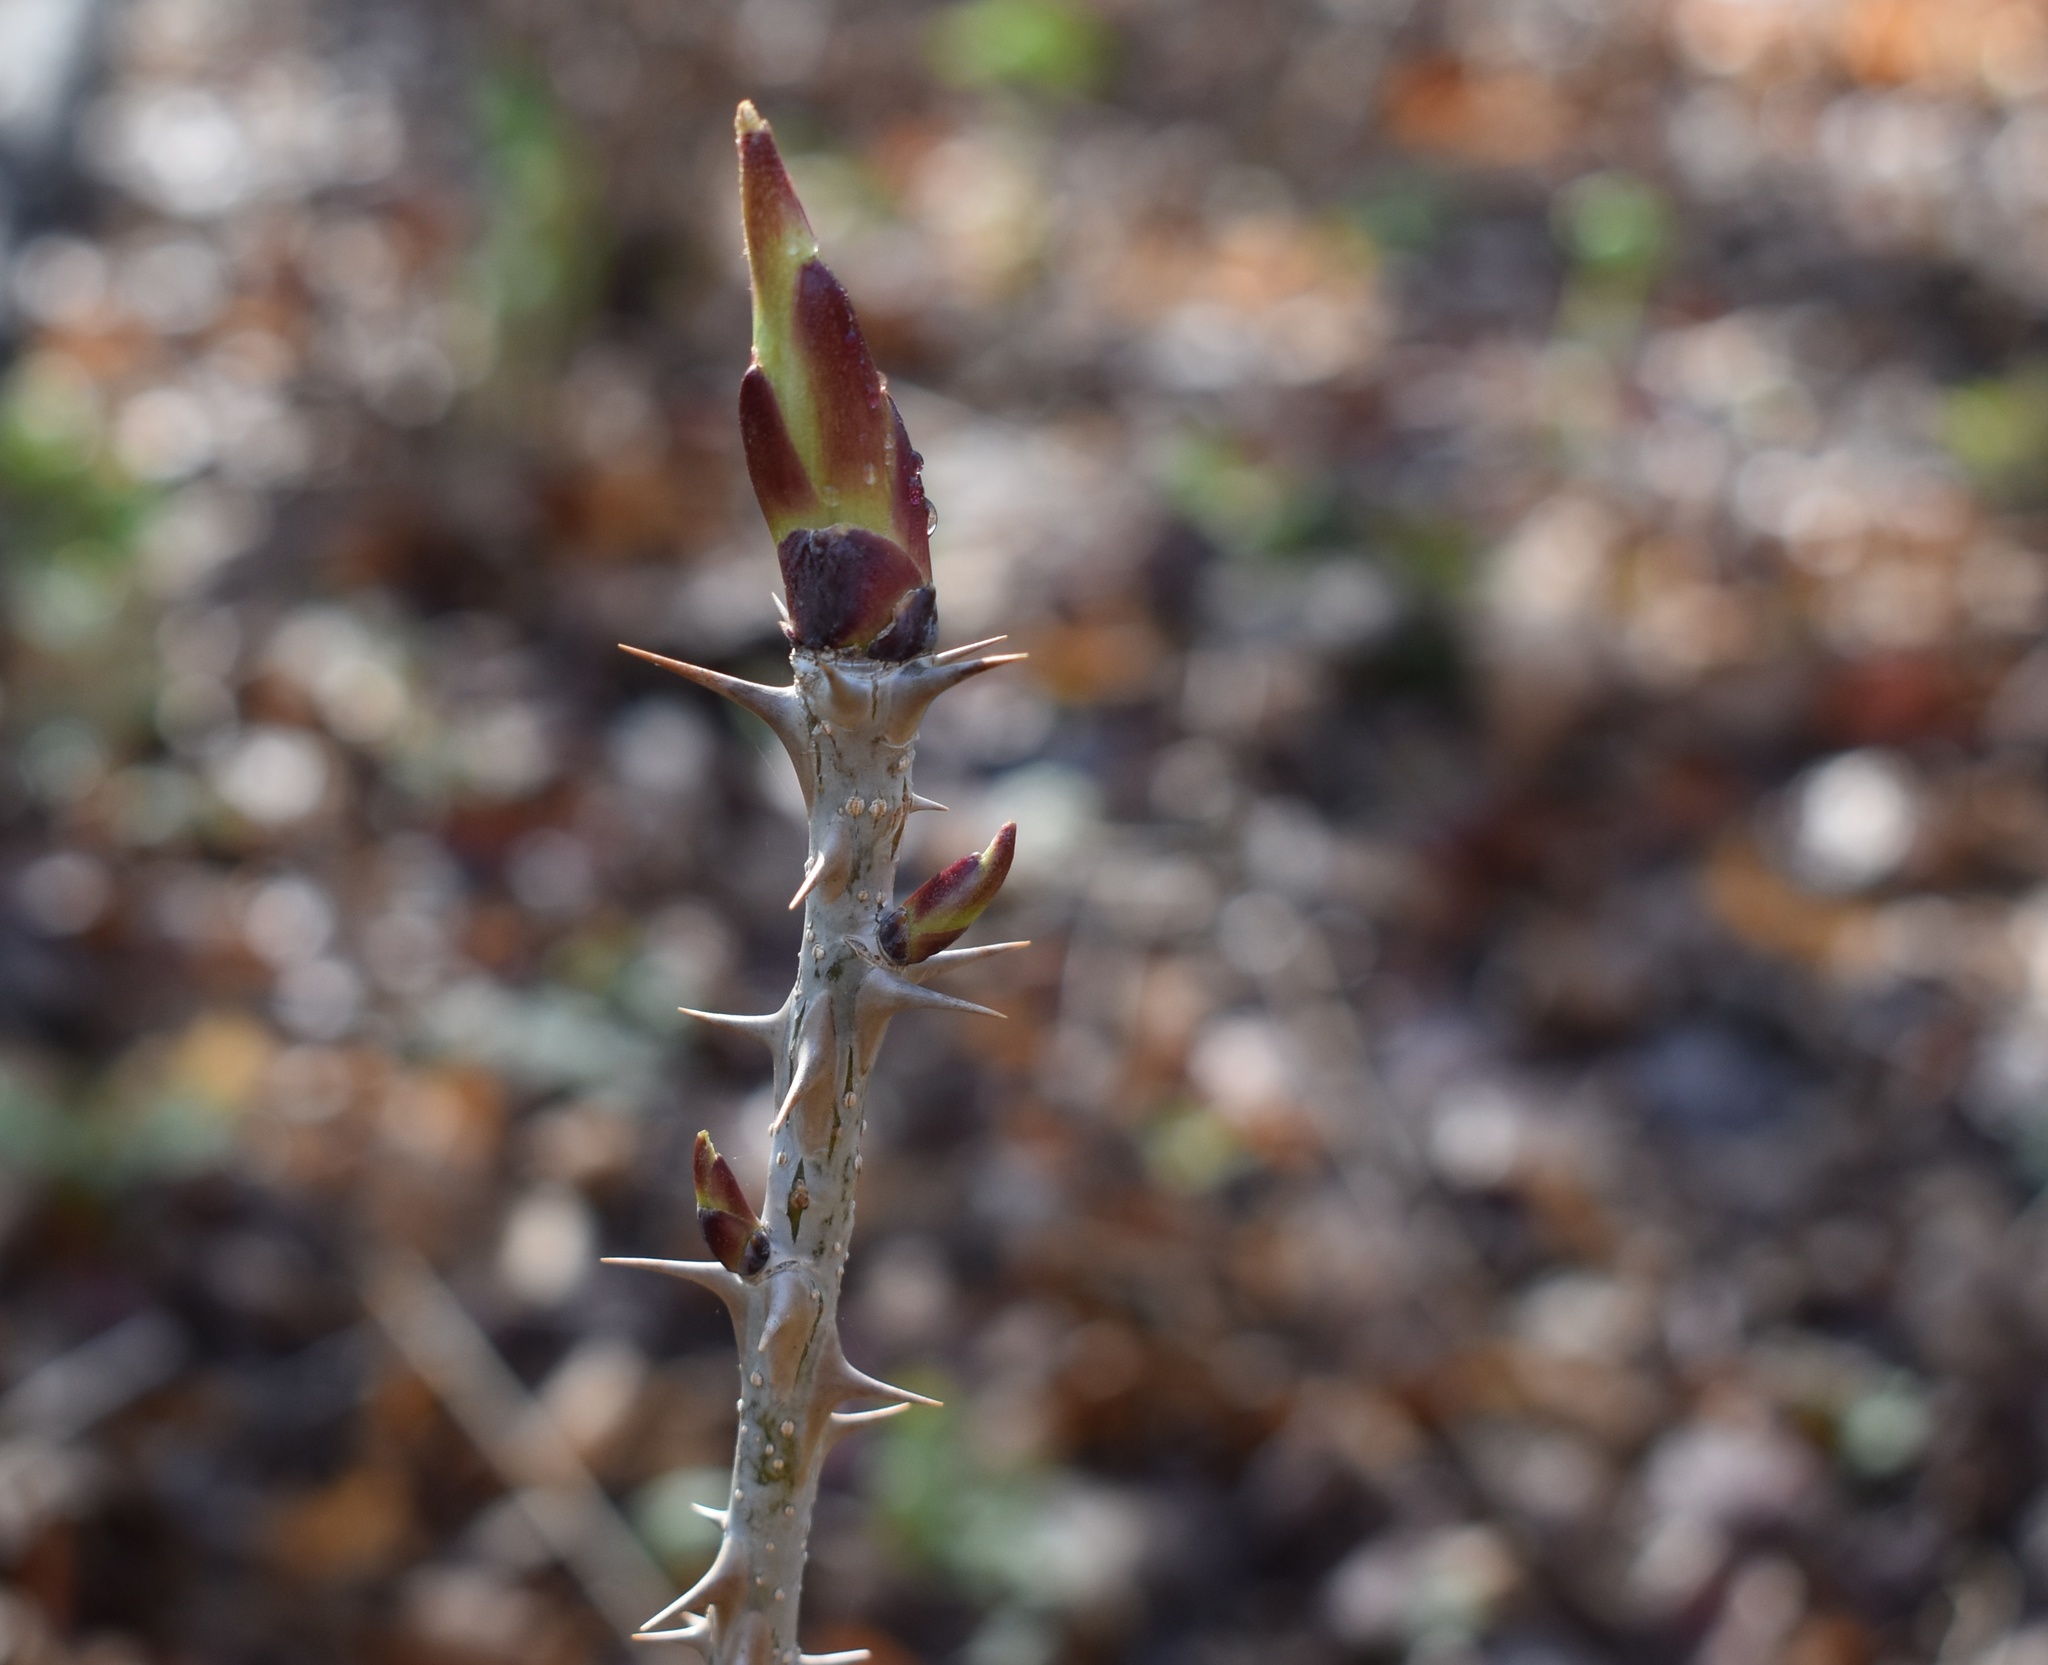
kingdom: Plantae
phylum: Tracheophyta
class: Magnoliopsida
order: Apiales
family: Araliaceae
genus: Kalopanax
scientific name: Kalopanax septemlobus
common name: Castor aralia
